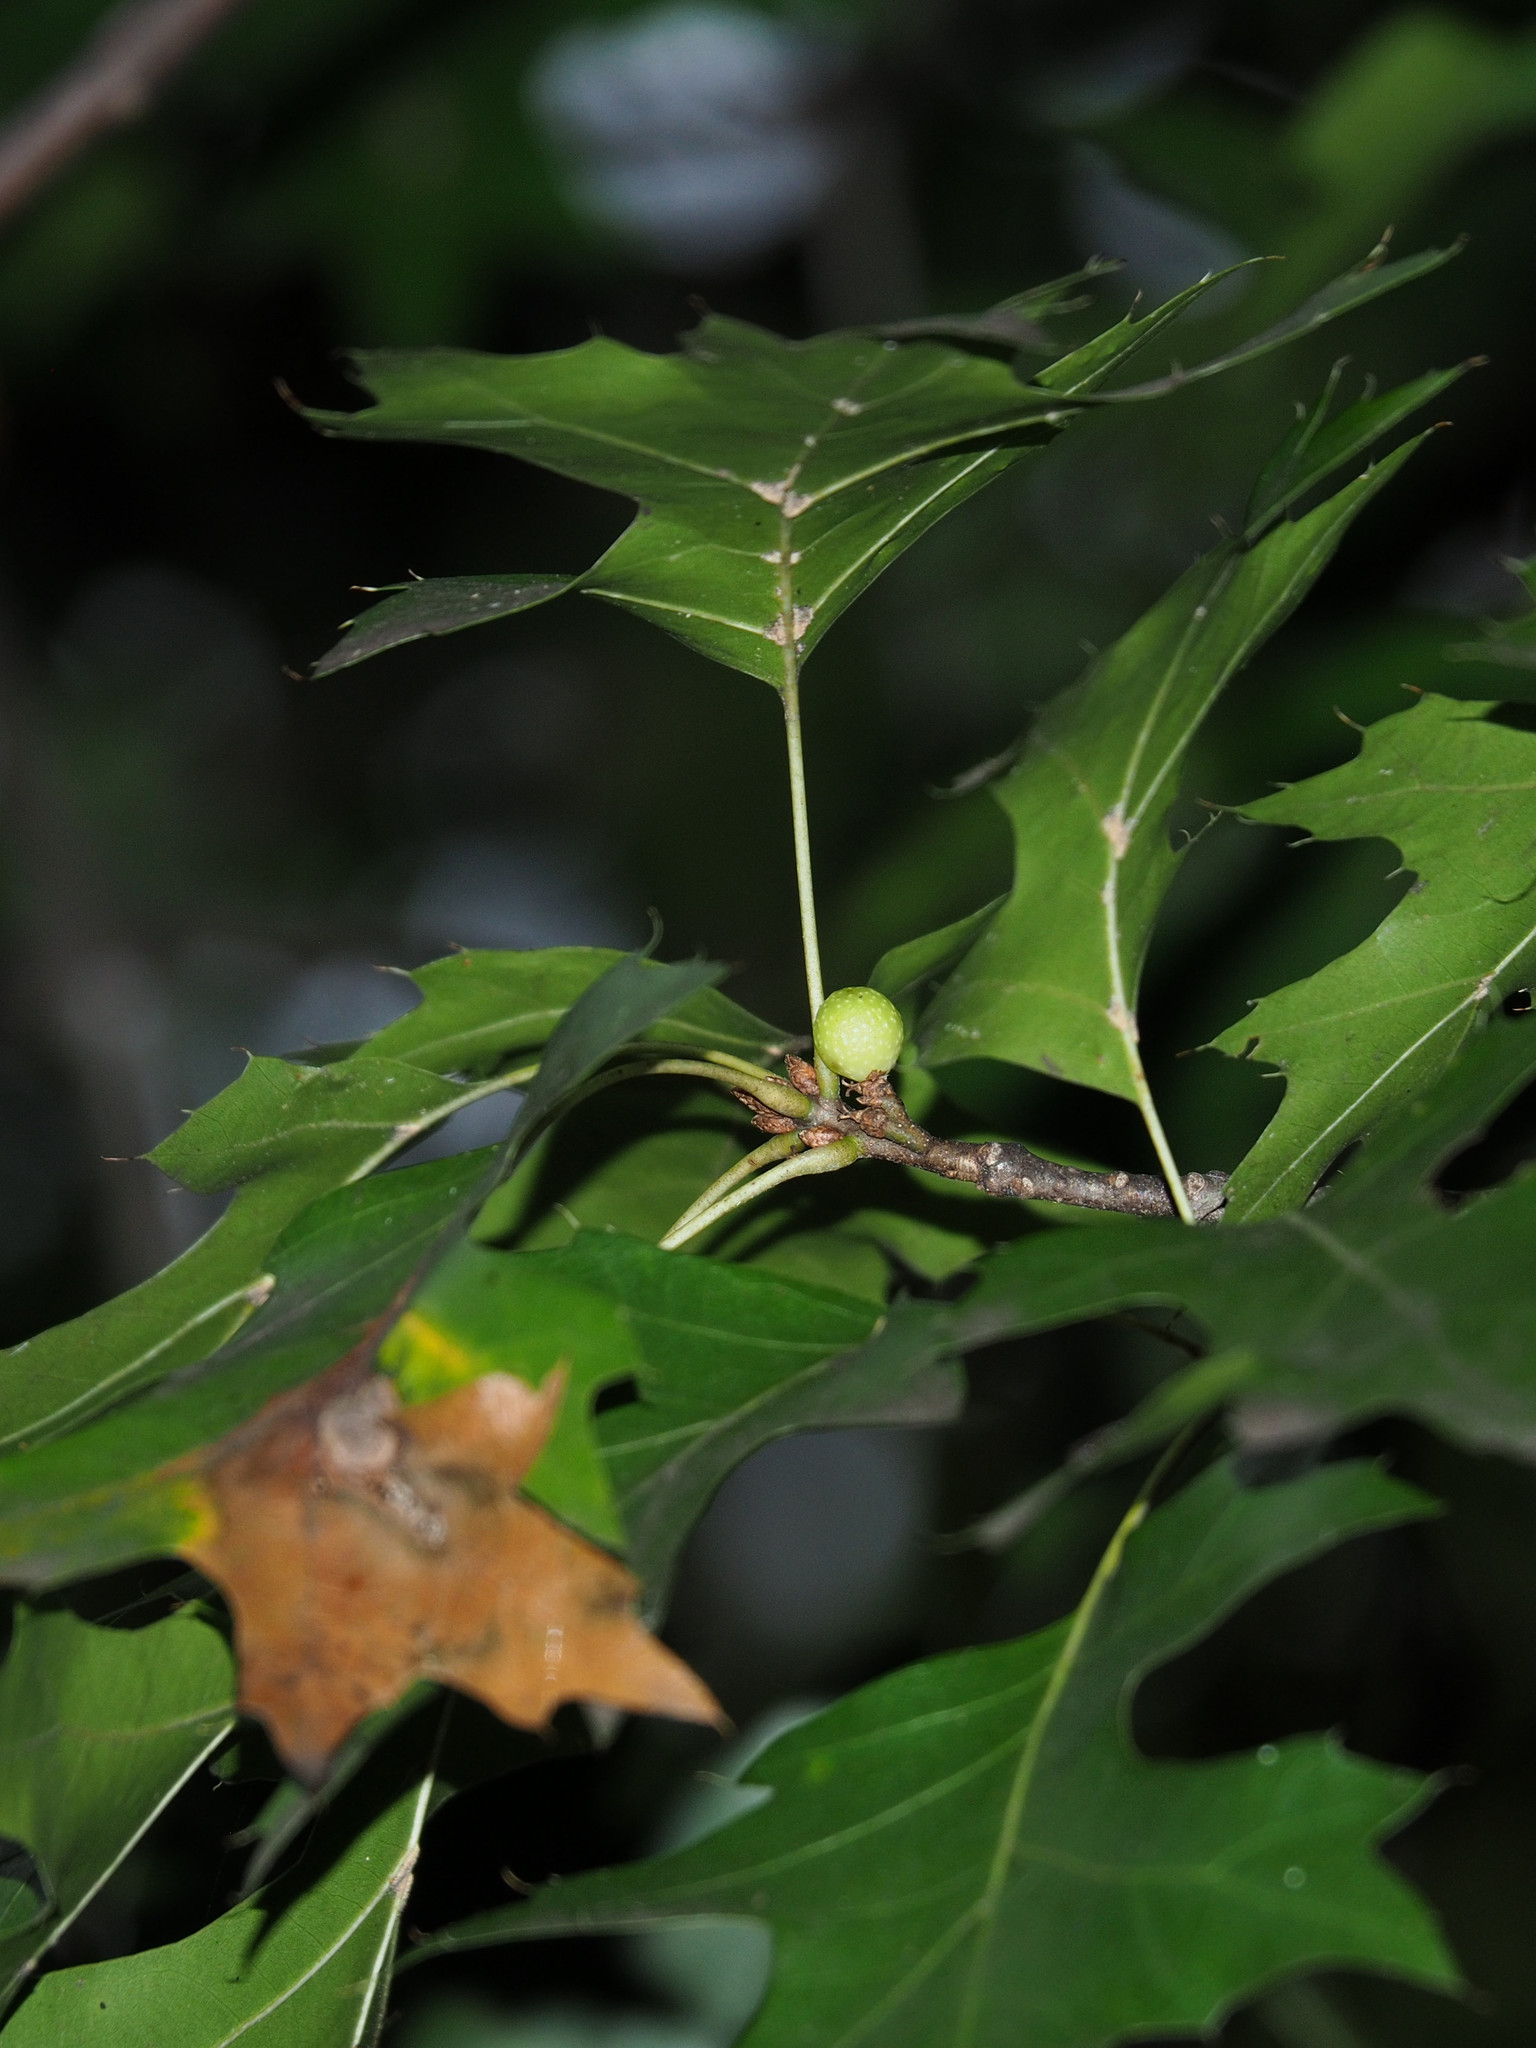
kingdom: Animalia
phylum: Arthropoda
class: Insecta
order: Hymenoptera
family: Cynipidae
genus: Callirhytis
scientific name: Callirhytis
